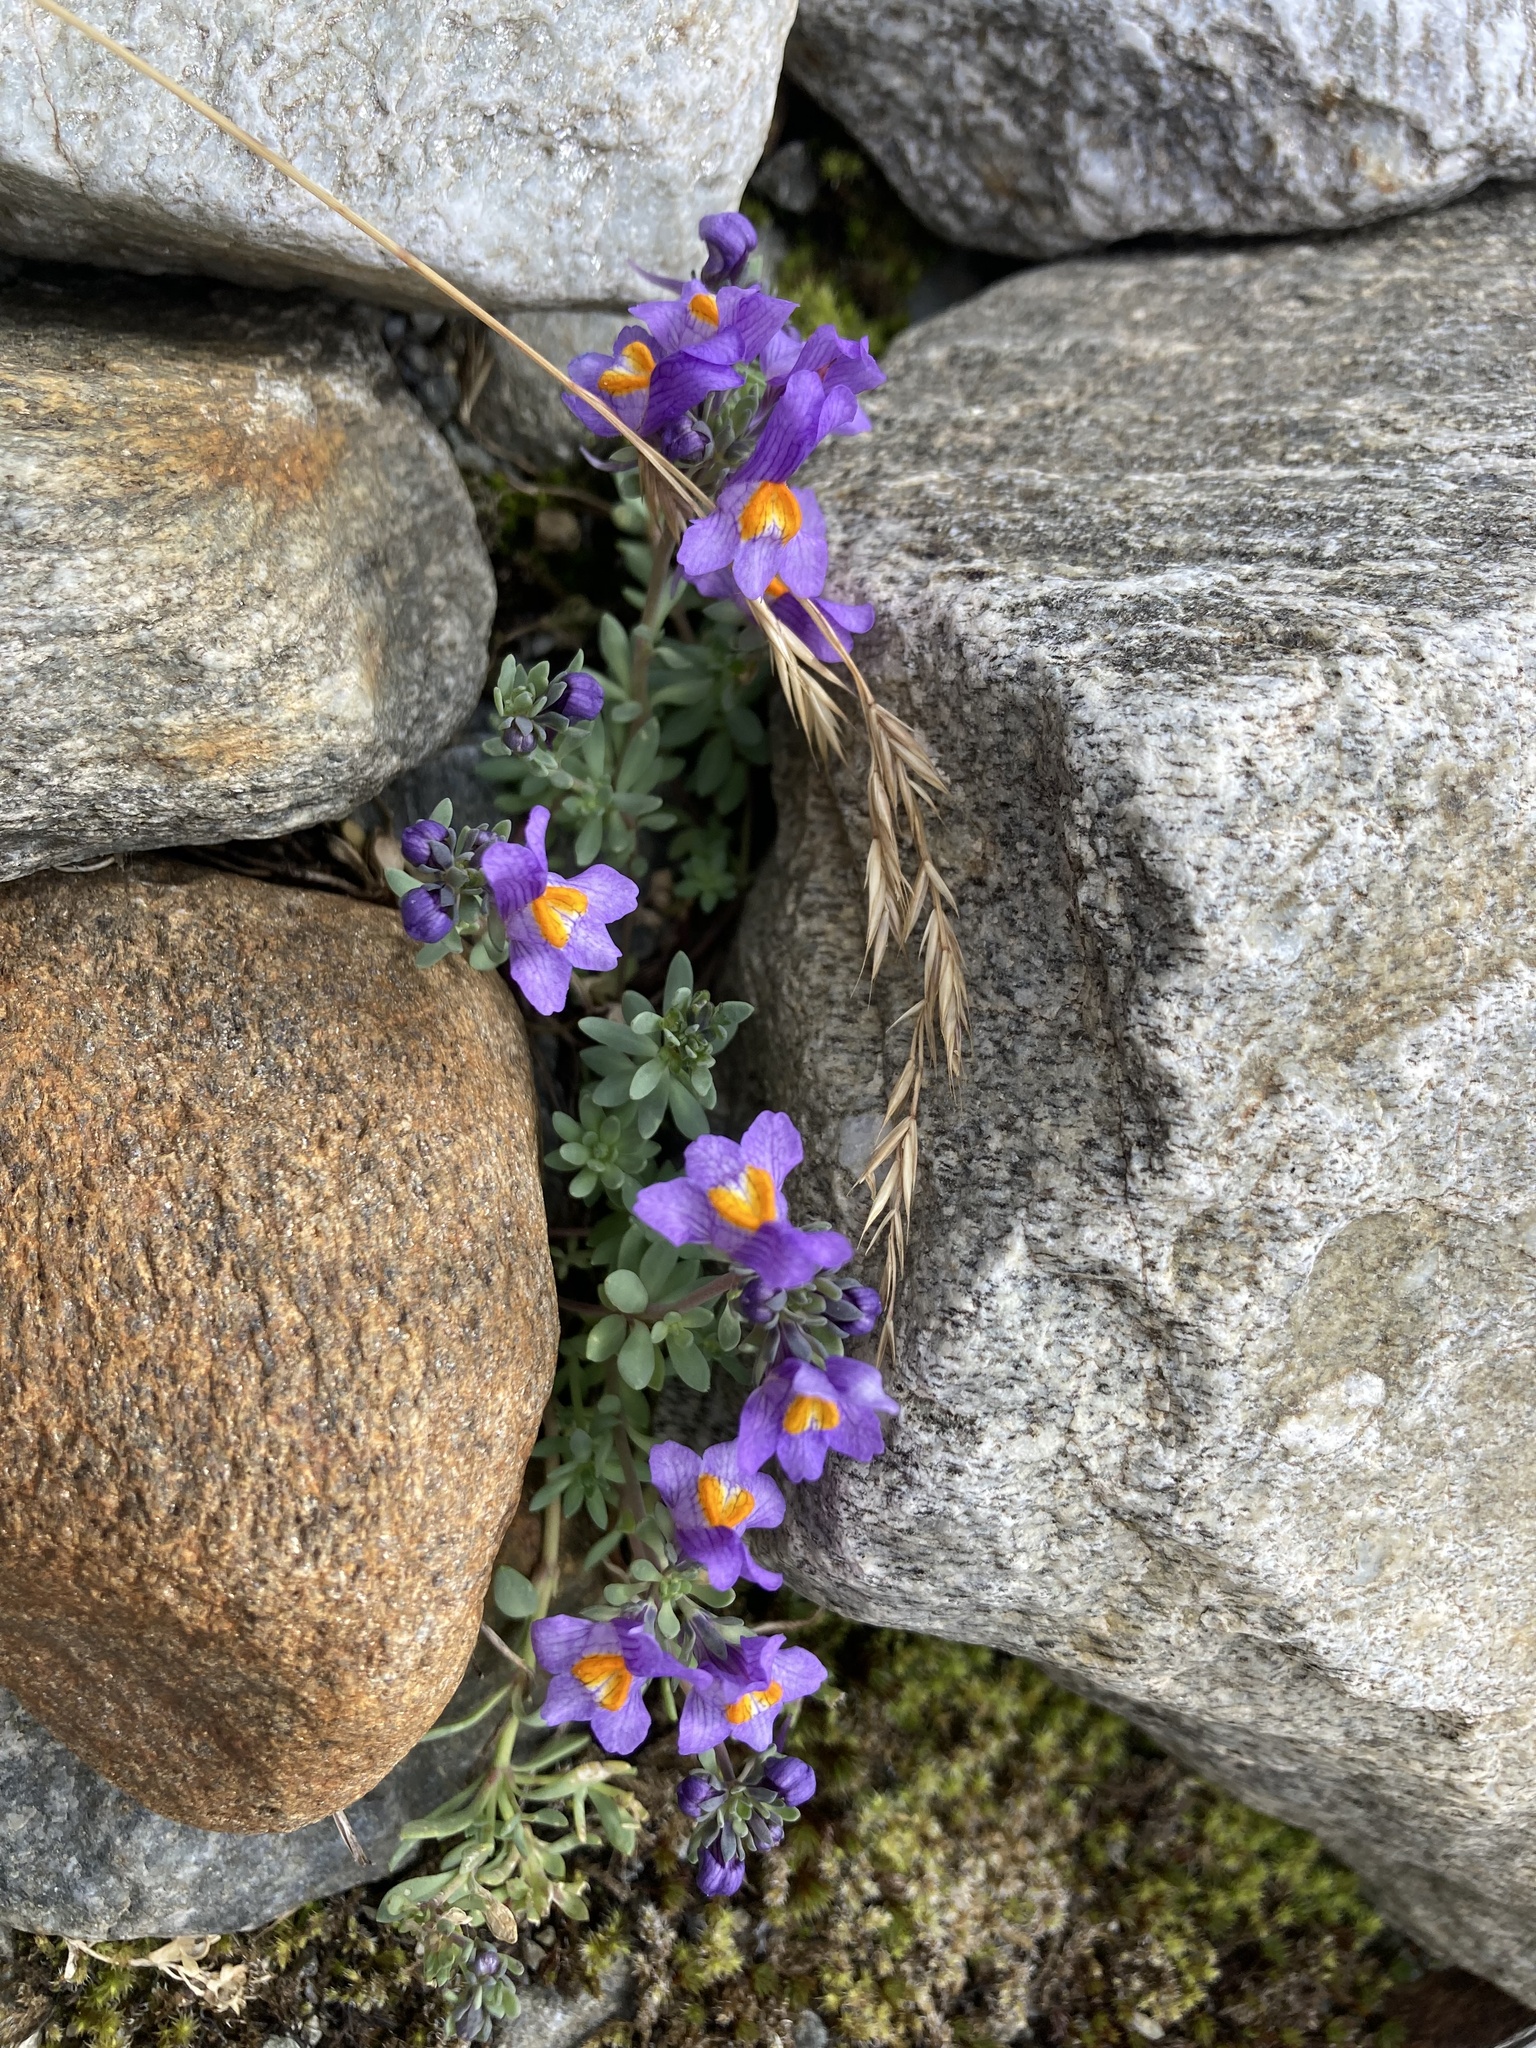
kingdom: Plantae
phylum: Tracheophyta
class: Magnoliopsida
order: Lamiales
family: Plantaginaceae
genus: Linaria
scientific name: Linaria alpina
